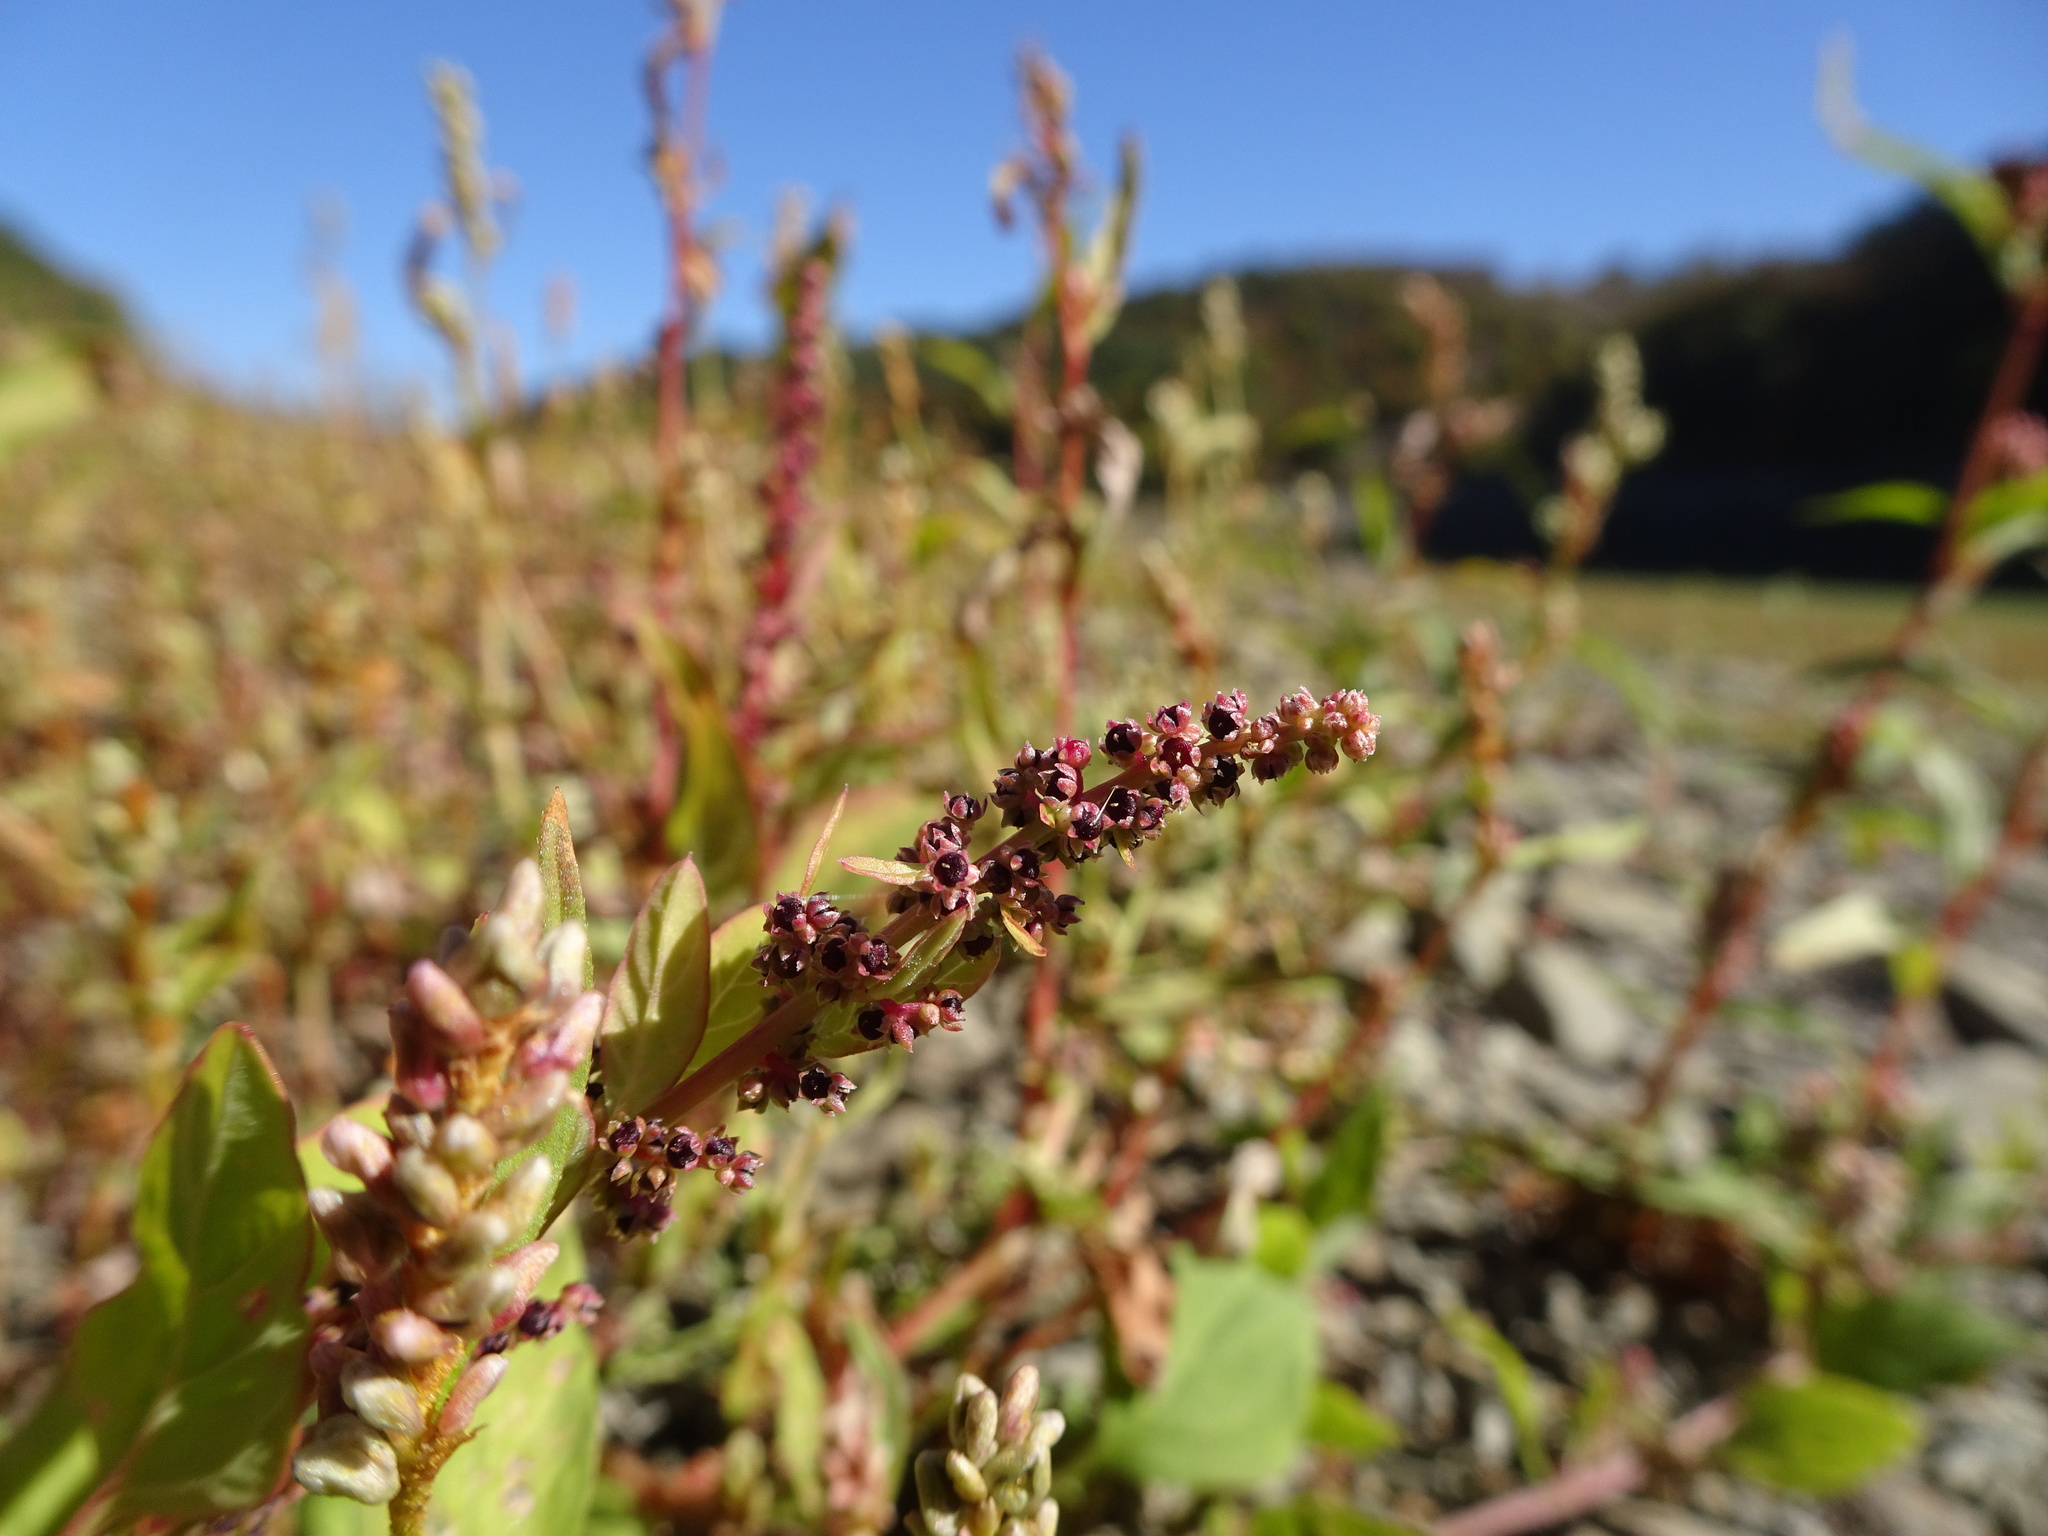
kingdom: Plantae
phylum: Tracheophyta
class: Magnoliopsida
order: Caryophyllales
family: Amaranthaceae
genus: Lipandra
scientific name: Lipandra polysperma
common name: Many-seed goosefoot
